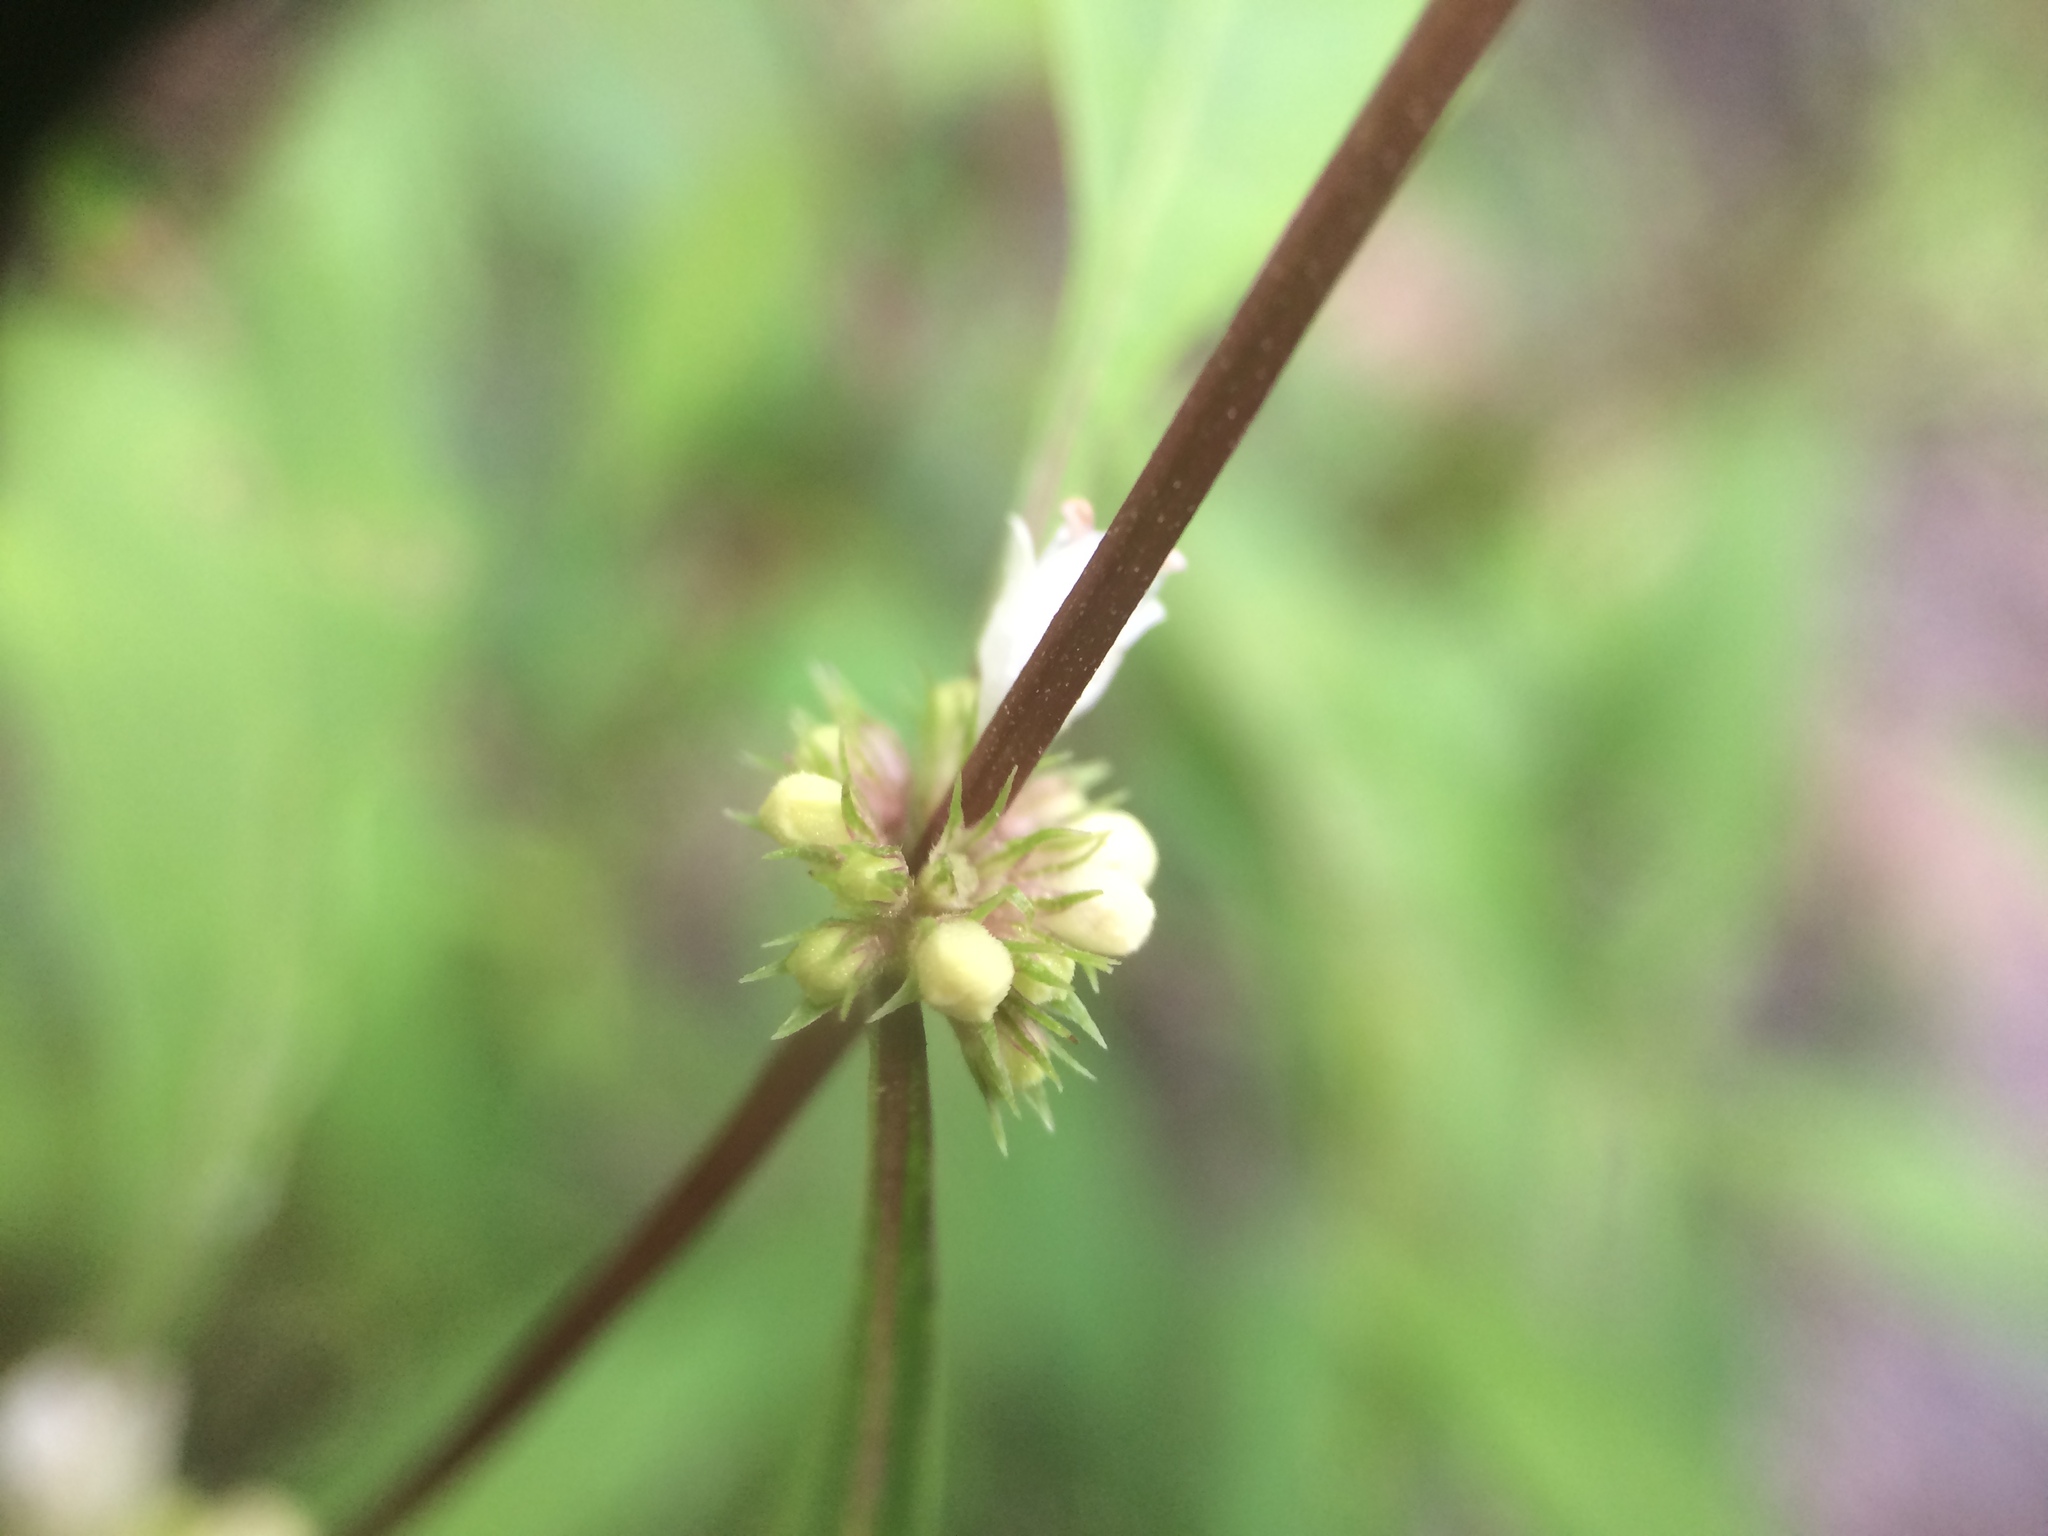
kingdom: Plantae
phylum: Tracheophyta
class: Magnoliopsida
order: Lamiales
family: Lamiaceae
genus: Lycopus
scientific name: Lycopus rubellus
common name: Stalked bugleweed
